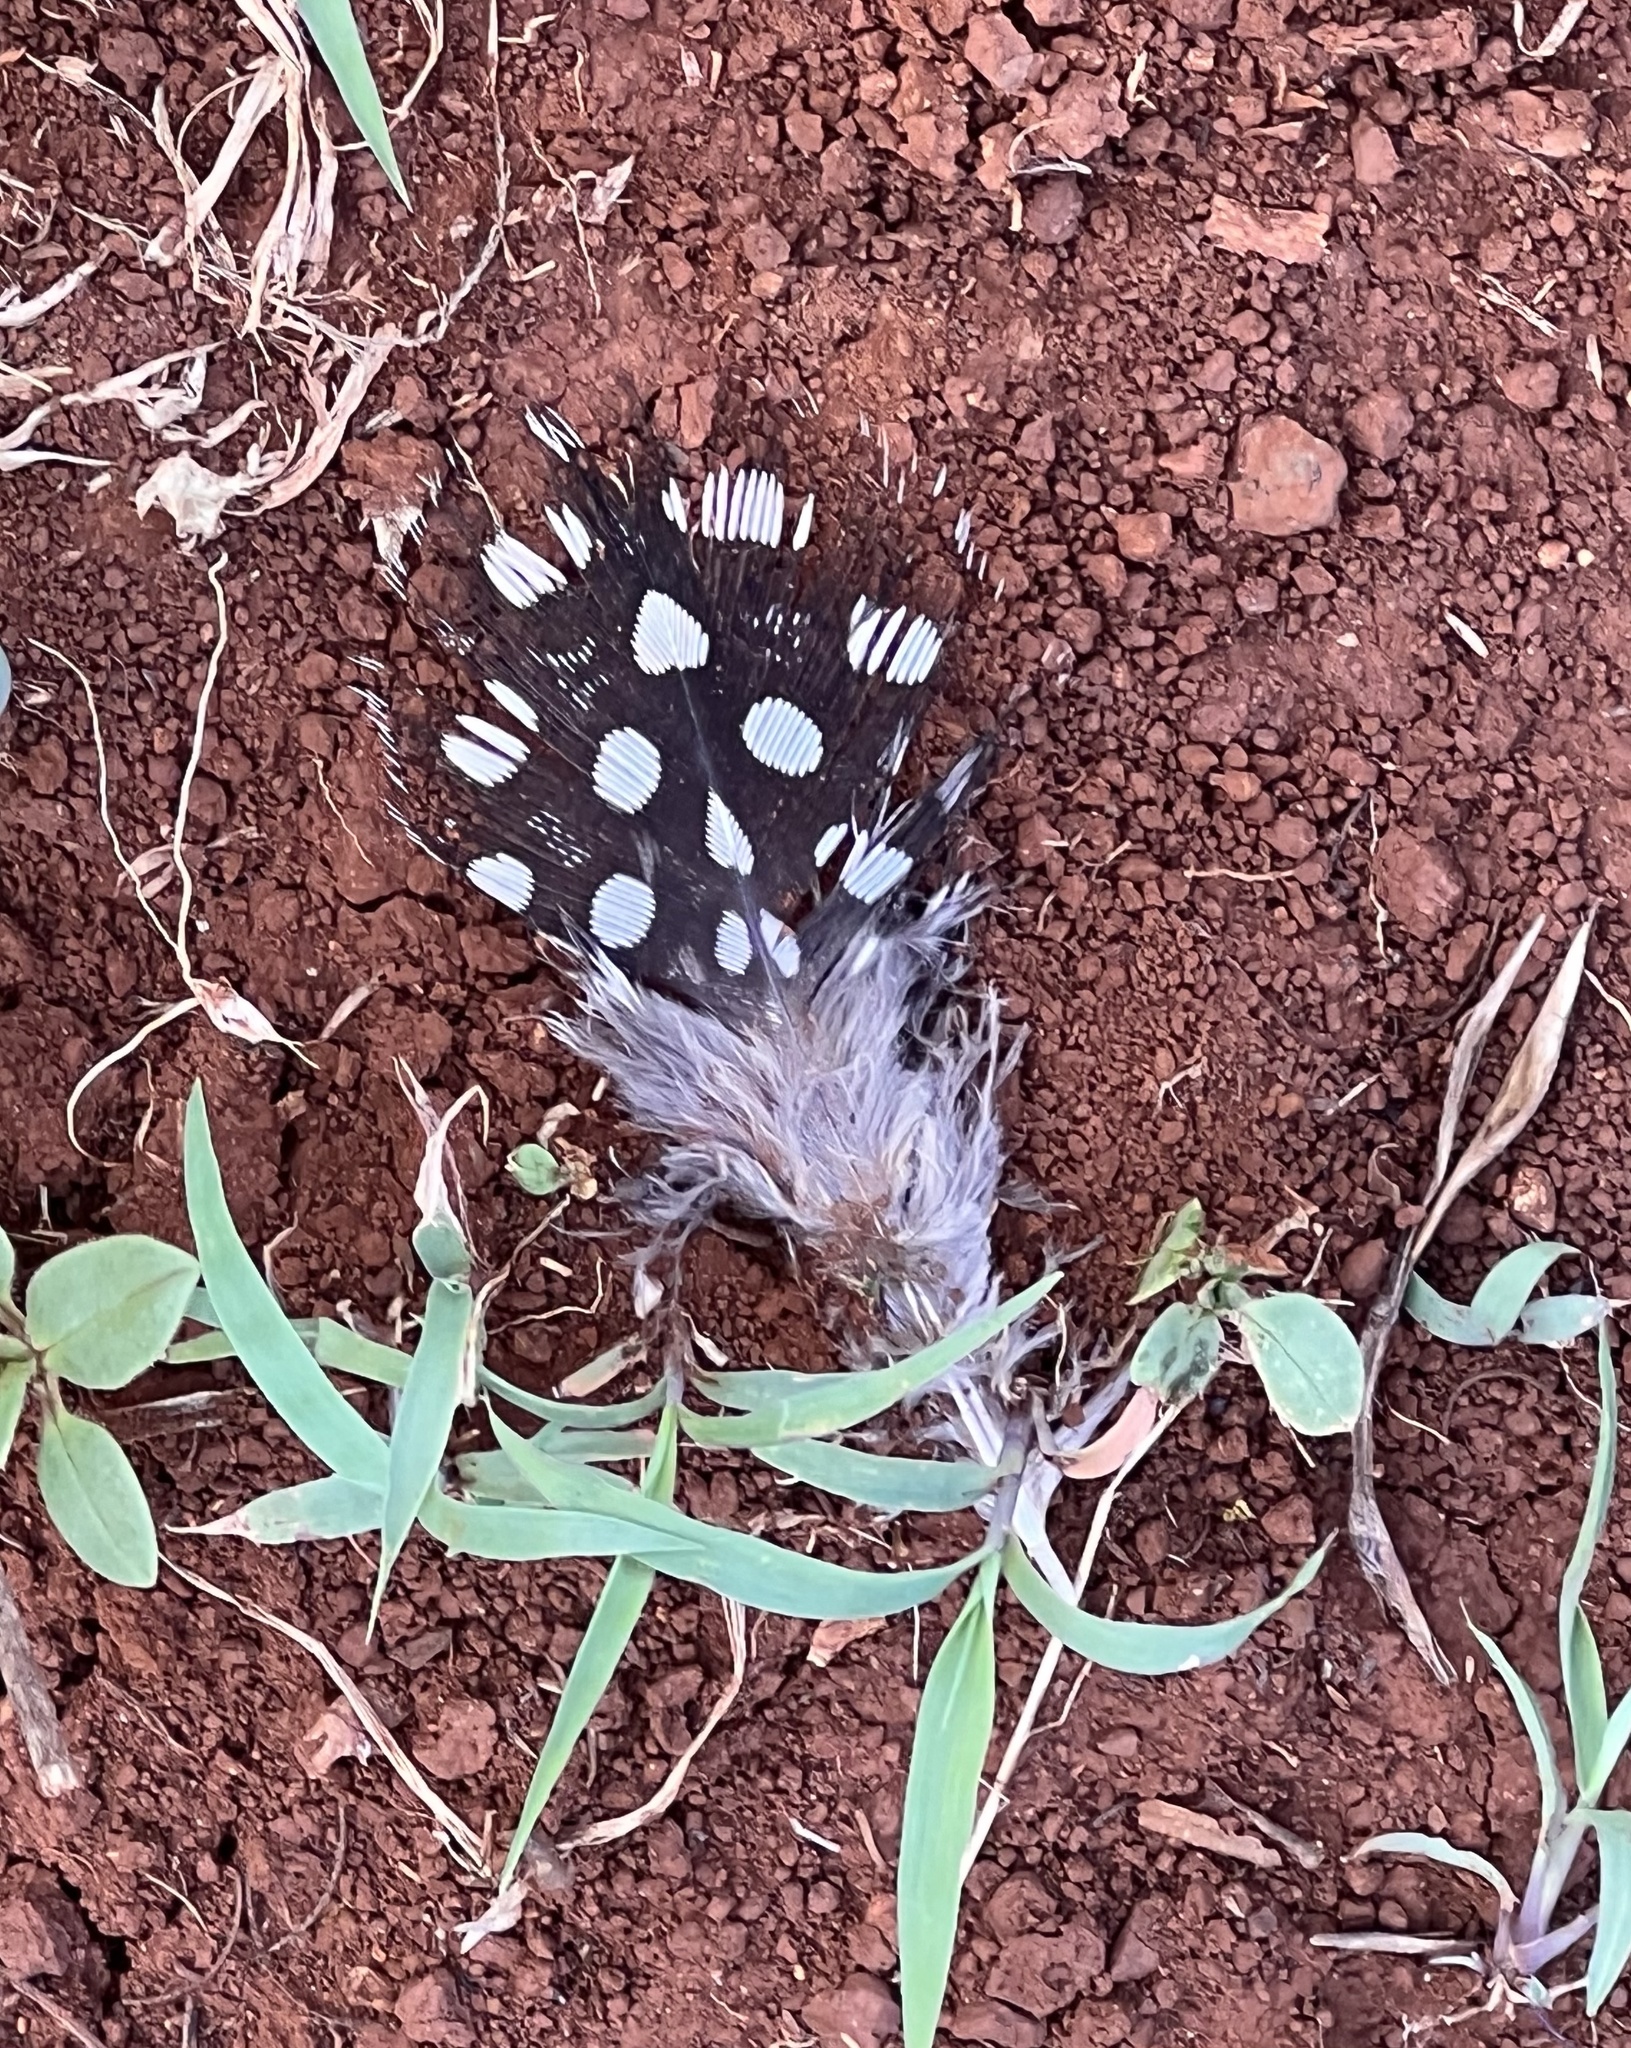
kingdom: Animalia
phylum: Chordata
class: Aves
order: Galliformes
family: Numididae
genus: Numida
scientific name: Numida meleagris
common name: Helmeted guineafowl
